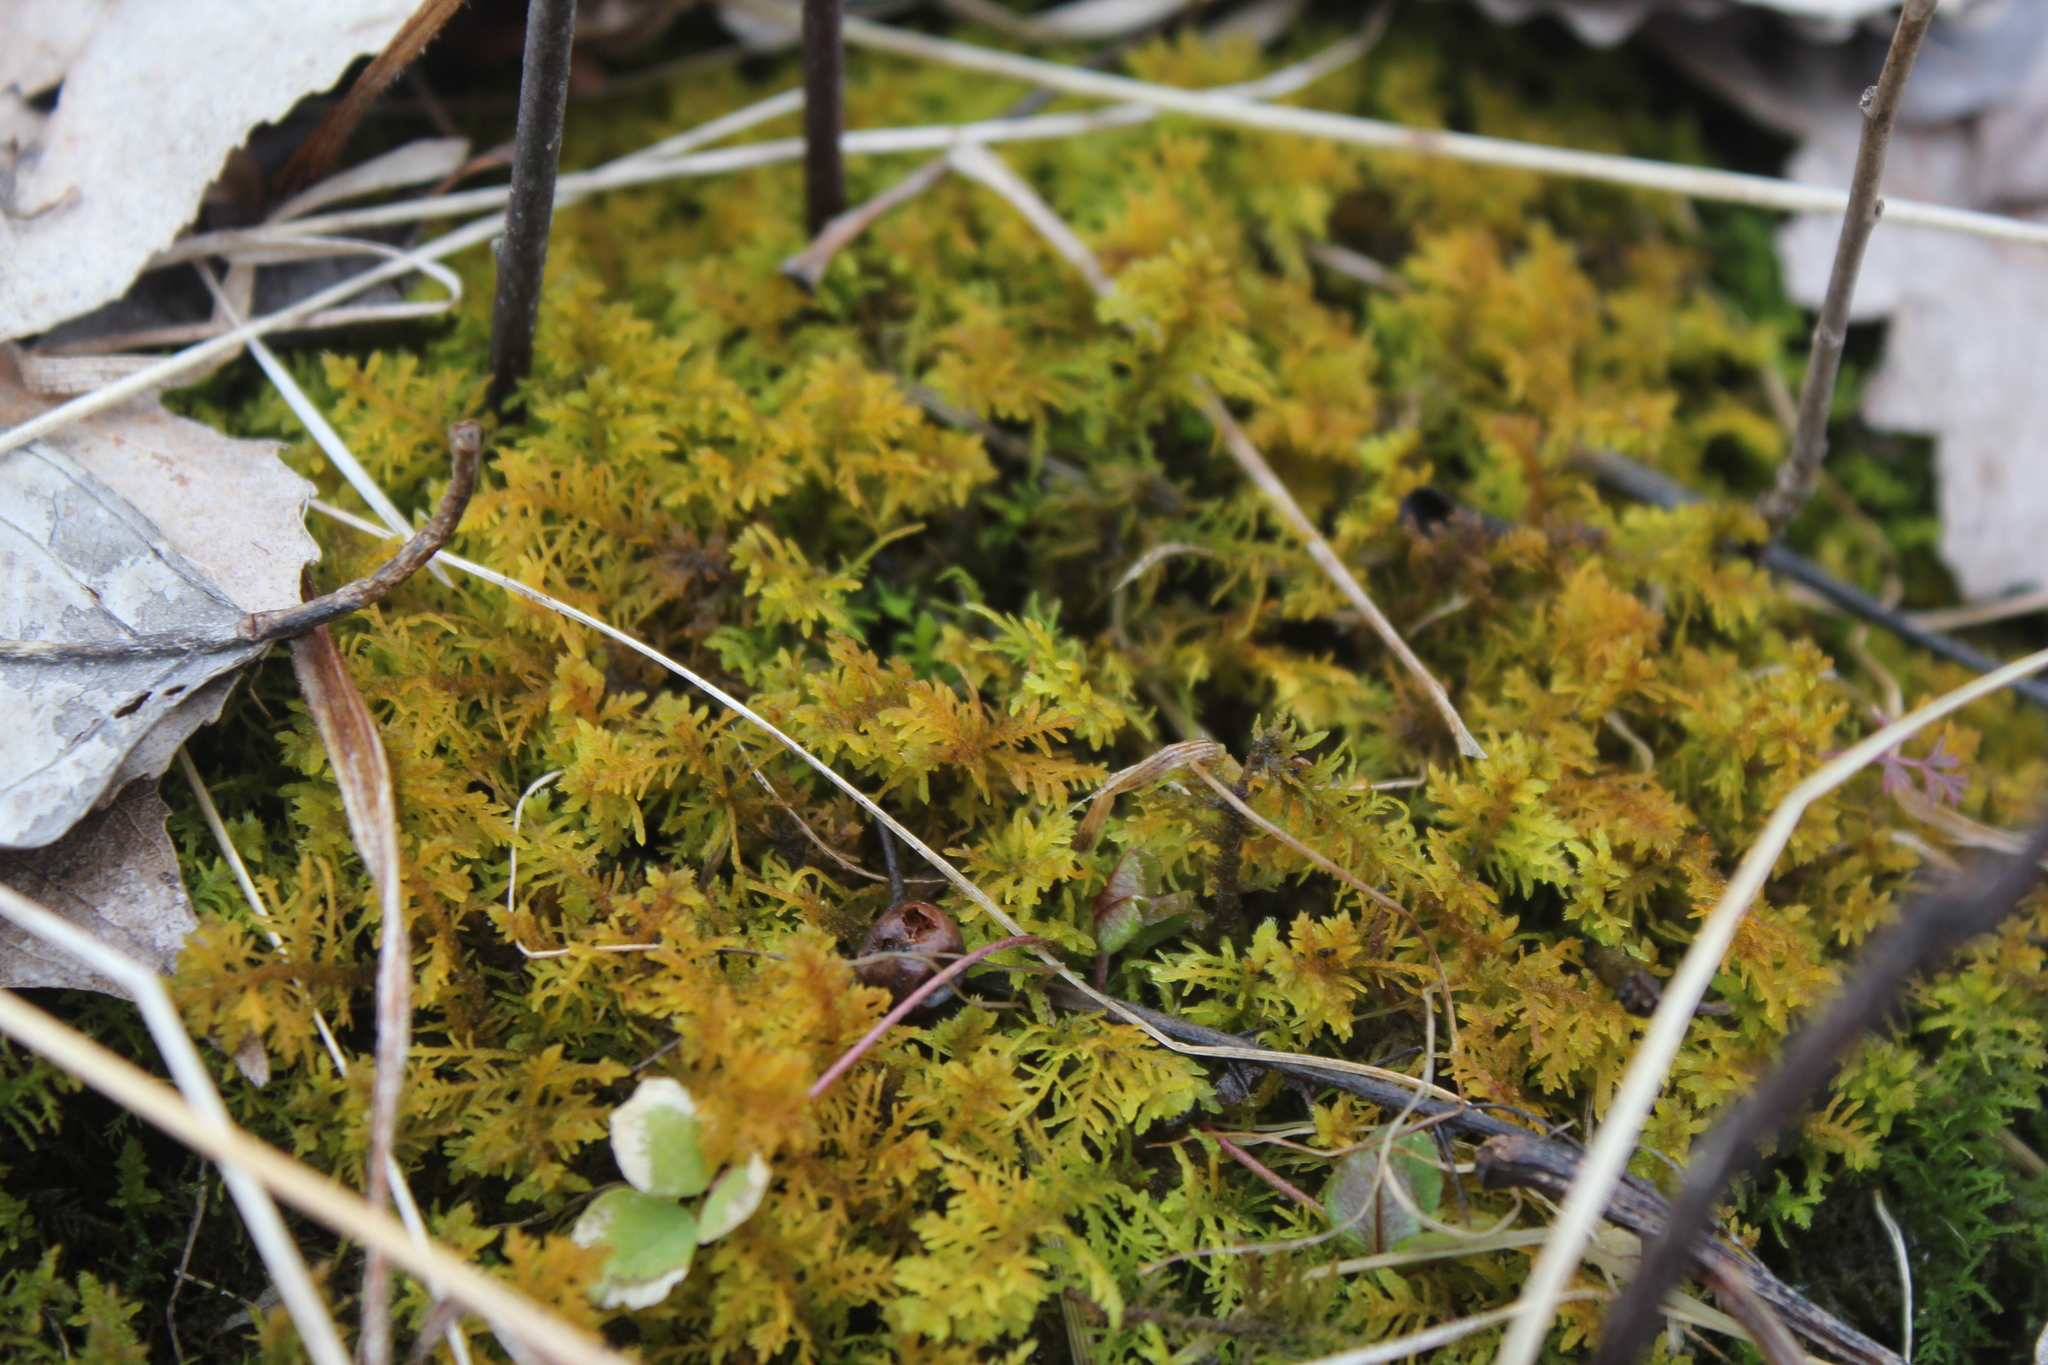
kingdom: Plantae
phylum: Bryophyta
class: Bryopsida
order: Hypnales
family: Thuidiaceae
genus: Thuidium
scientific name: Thuidium recognitum
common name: Hook-leaved fern moss
